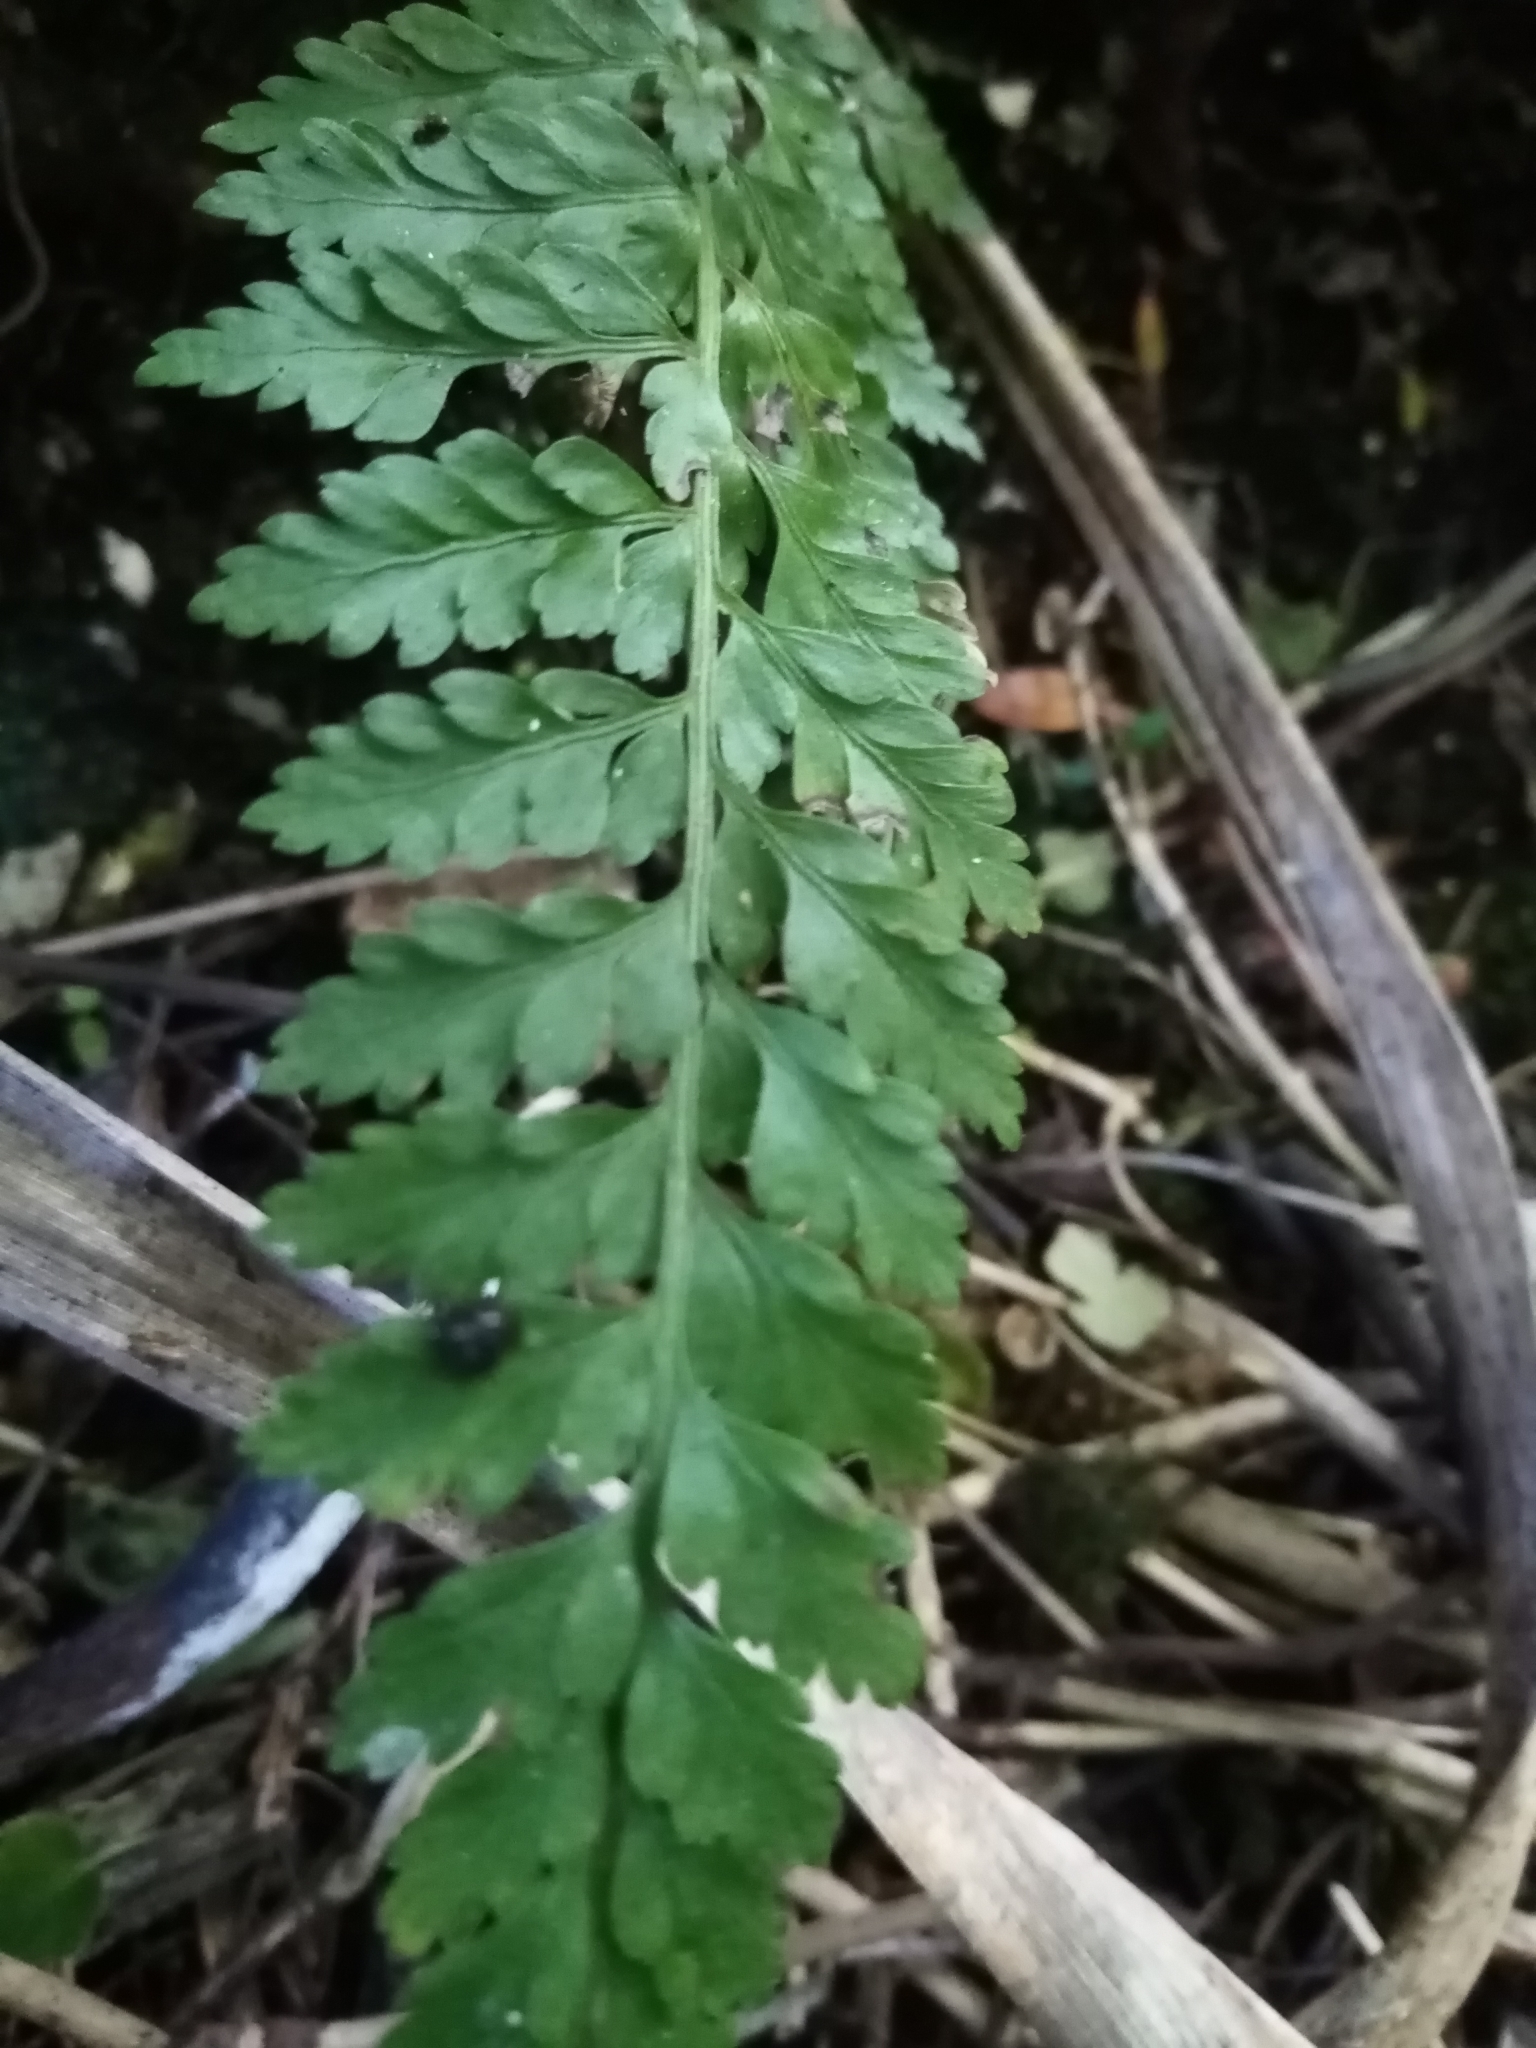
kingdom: Plantae
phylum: Tracheophyta
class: Polypodiopsida
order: Polypodiales
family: Aspleniaceae
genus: Asplenium
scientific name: Asplenium
